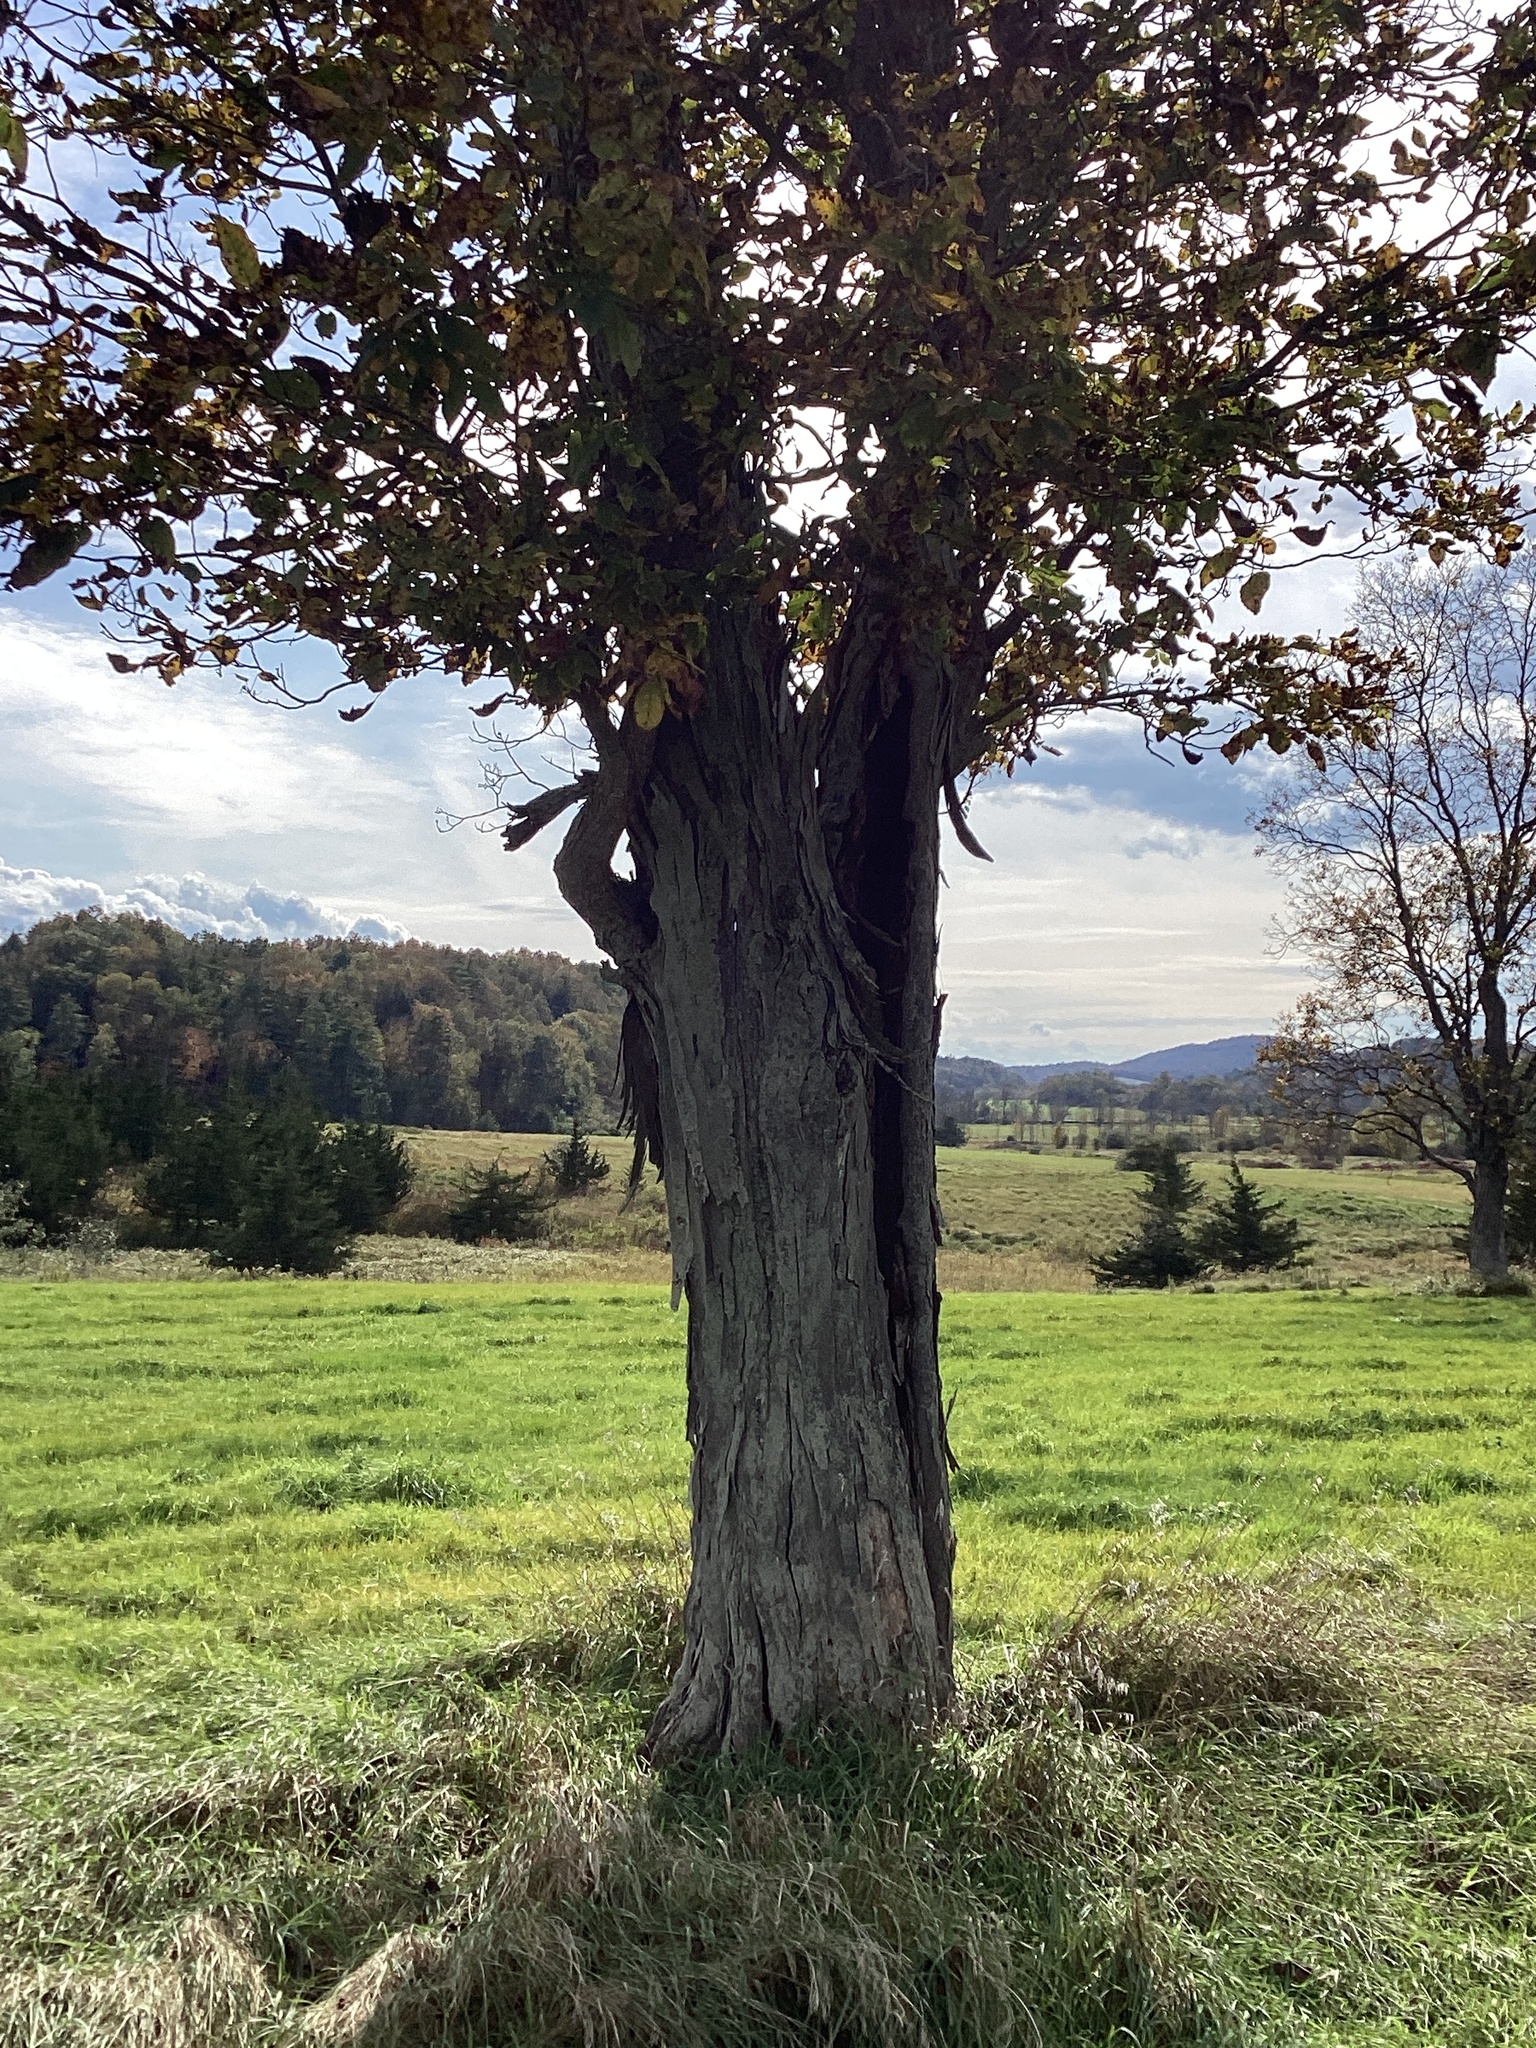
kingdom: Plantae
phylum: Tracheophyta
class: Magnoliopsida
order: Fagales
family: Juglandaceae
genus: Carya
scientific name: Carya ovata
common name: Shagbark hickory
